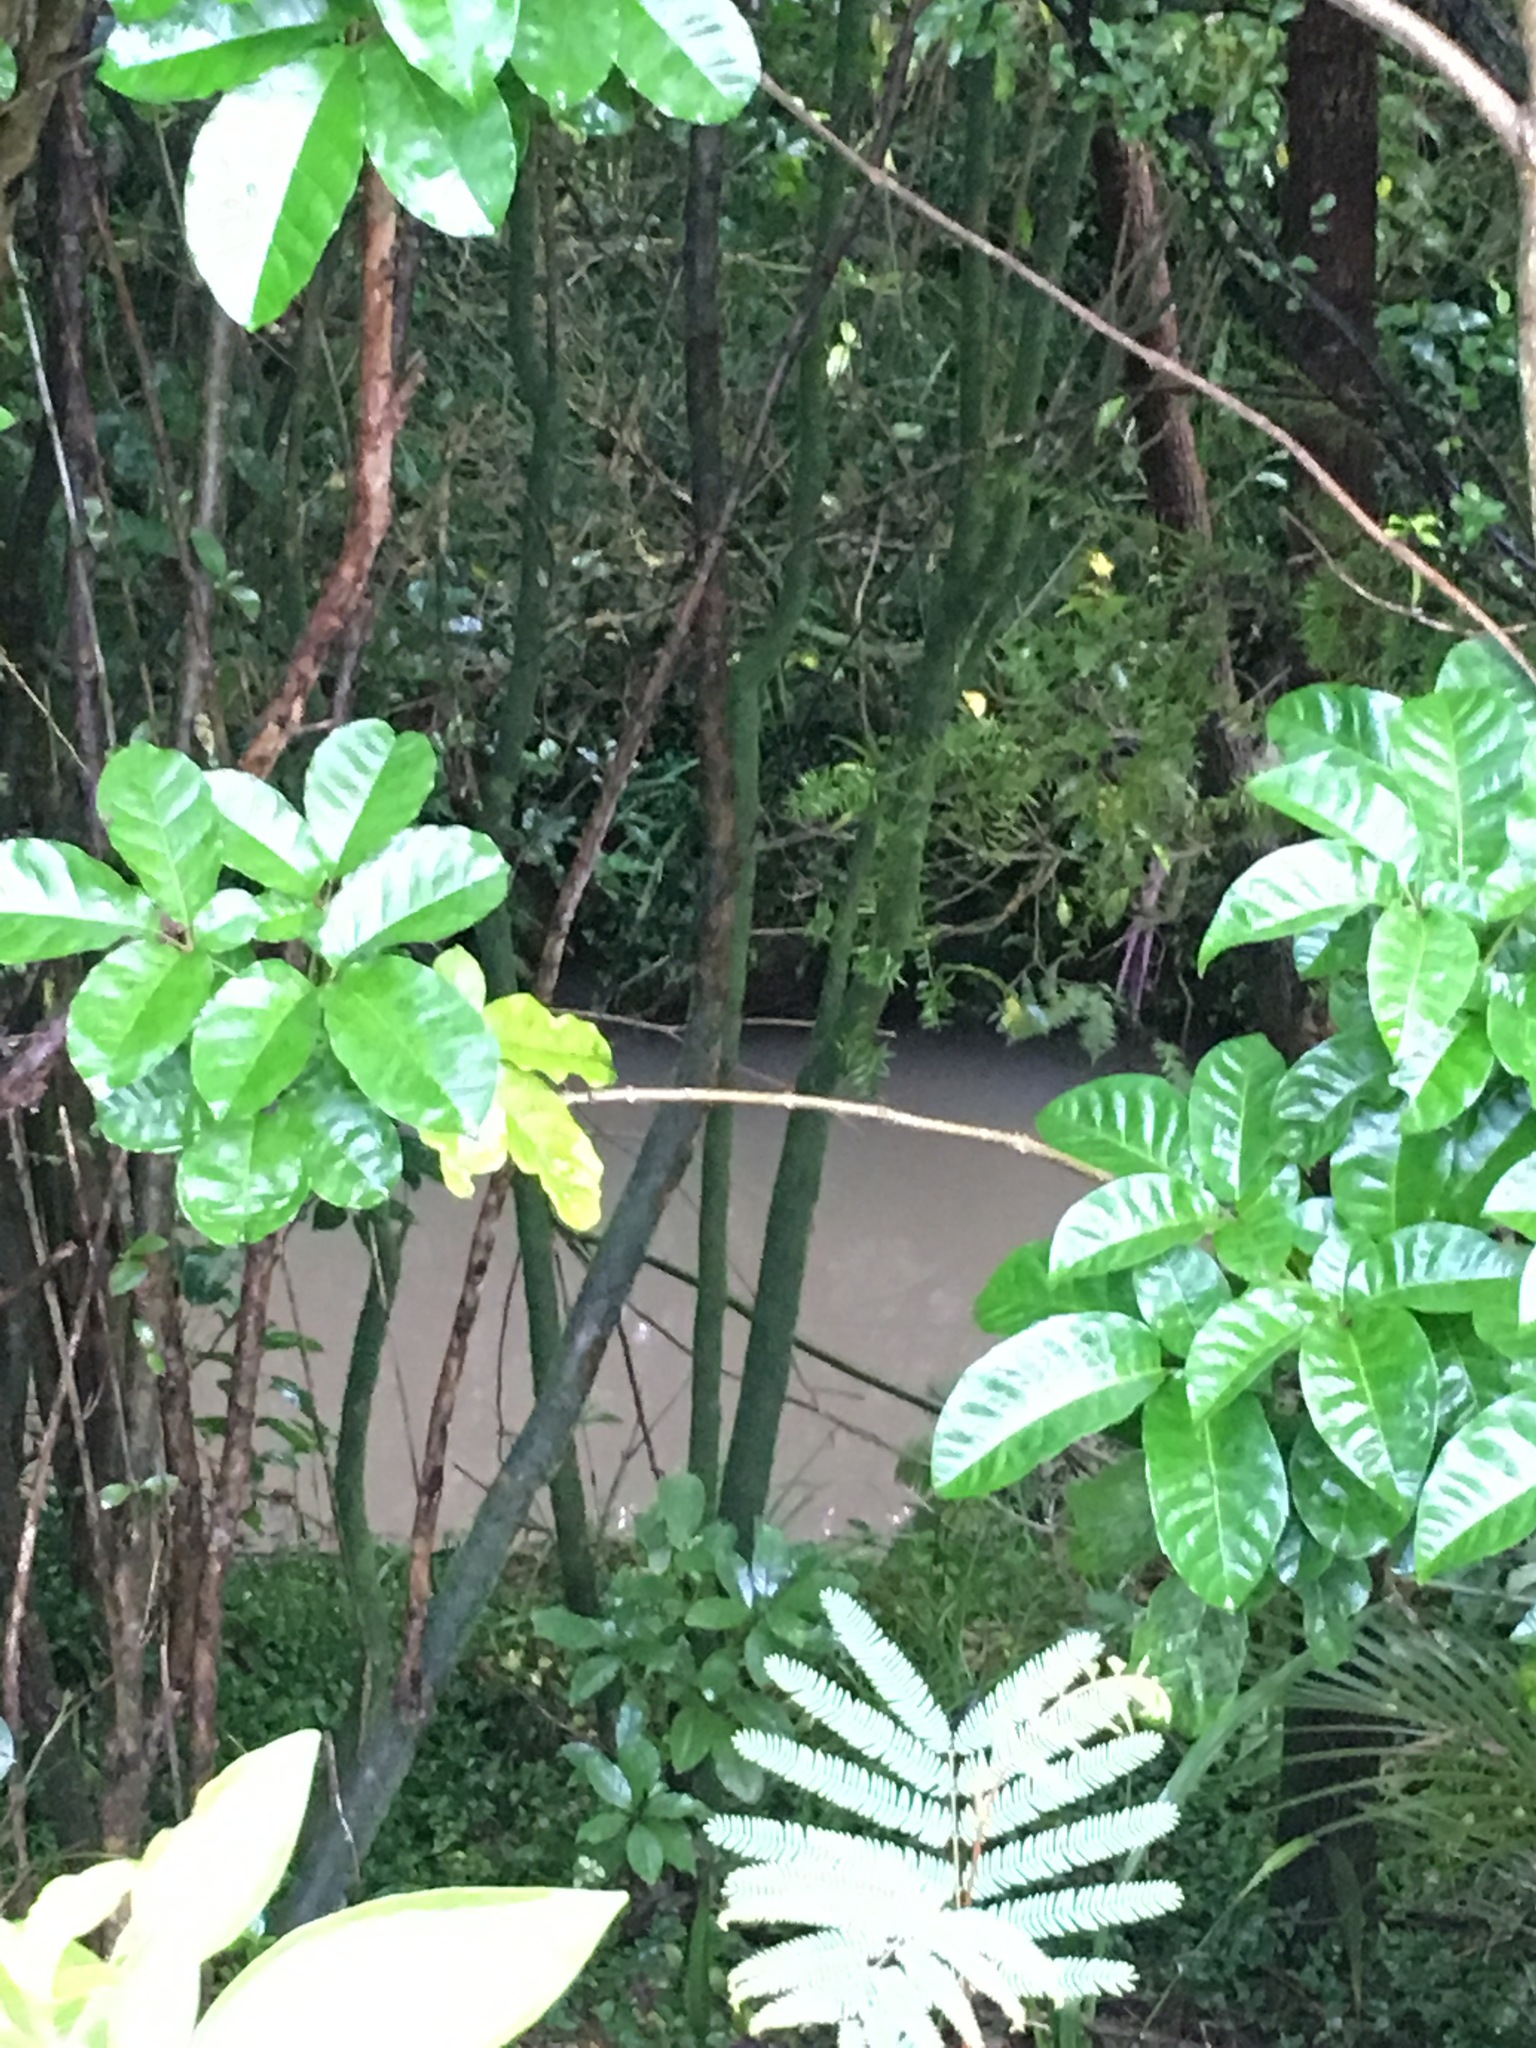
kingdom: Plantae
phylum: Tracheophyta
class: Magnoliopsida
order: Lamiales
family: Lamiaceae
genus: Vitex
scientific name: Vitex lucens
